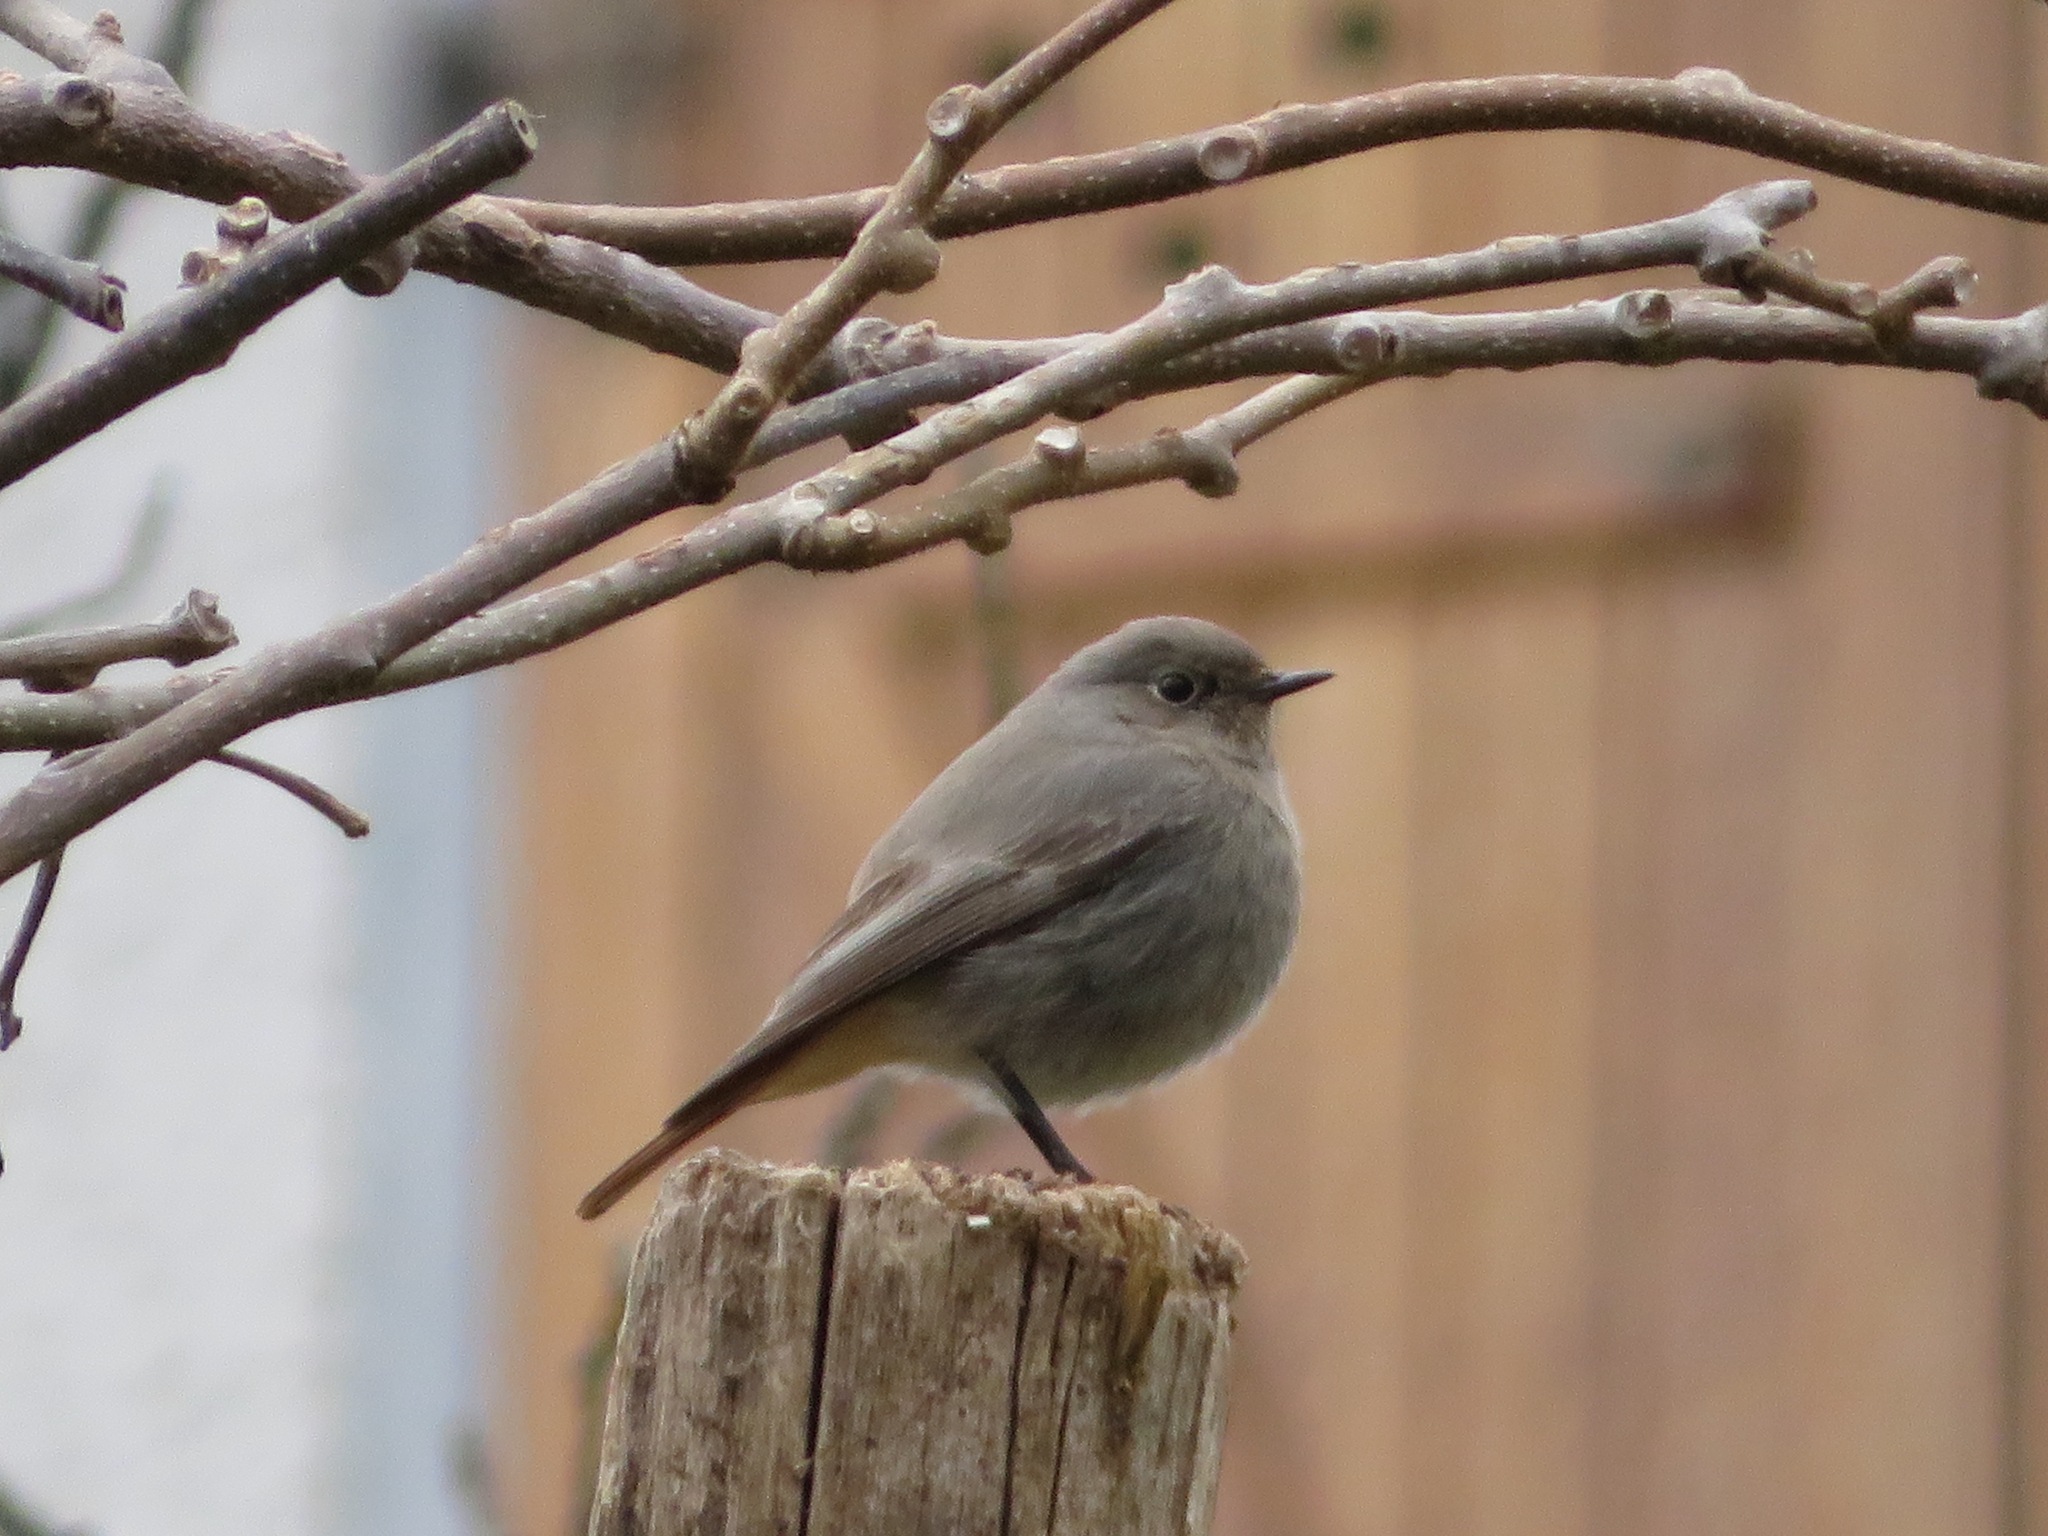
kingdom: Animalia
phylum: Chordata
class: Aves
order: Passeriformes
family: Muscicapidae
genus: Phoenicurus
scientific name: Phoenicurus ochruros
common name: Black redstart
